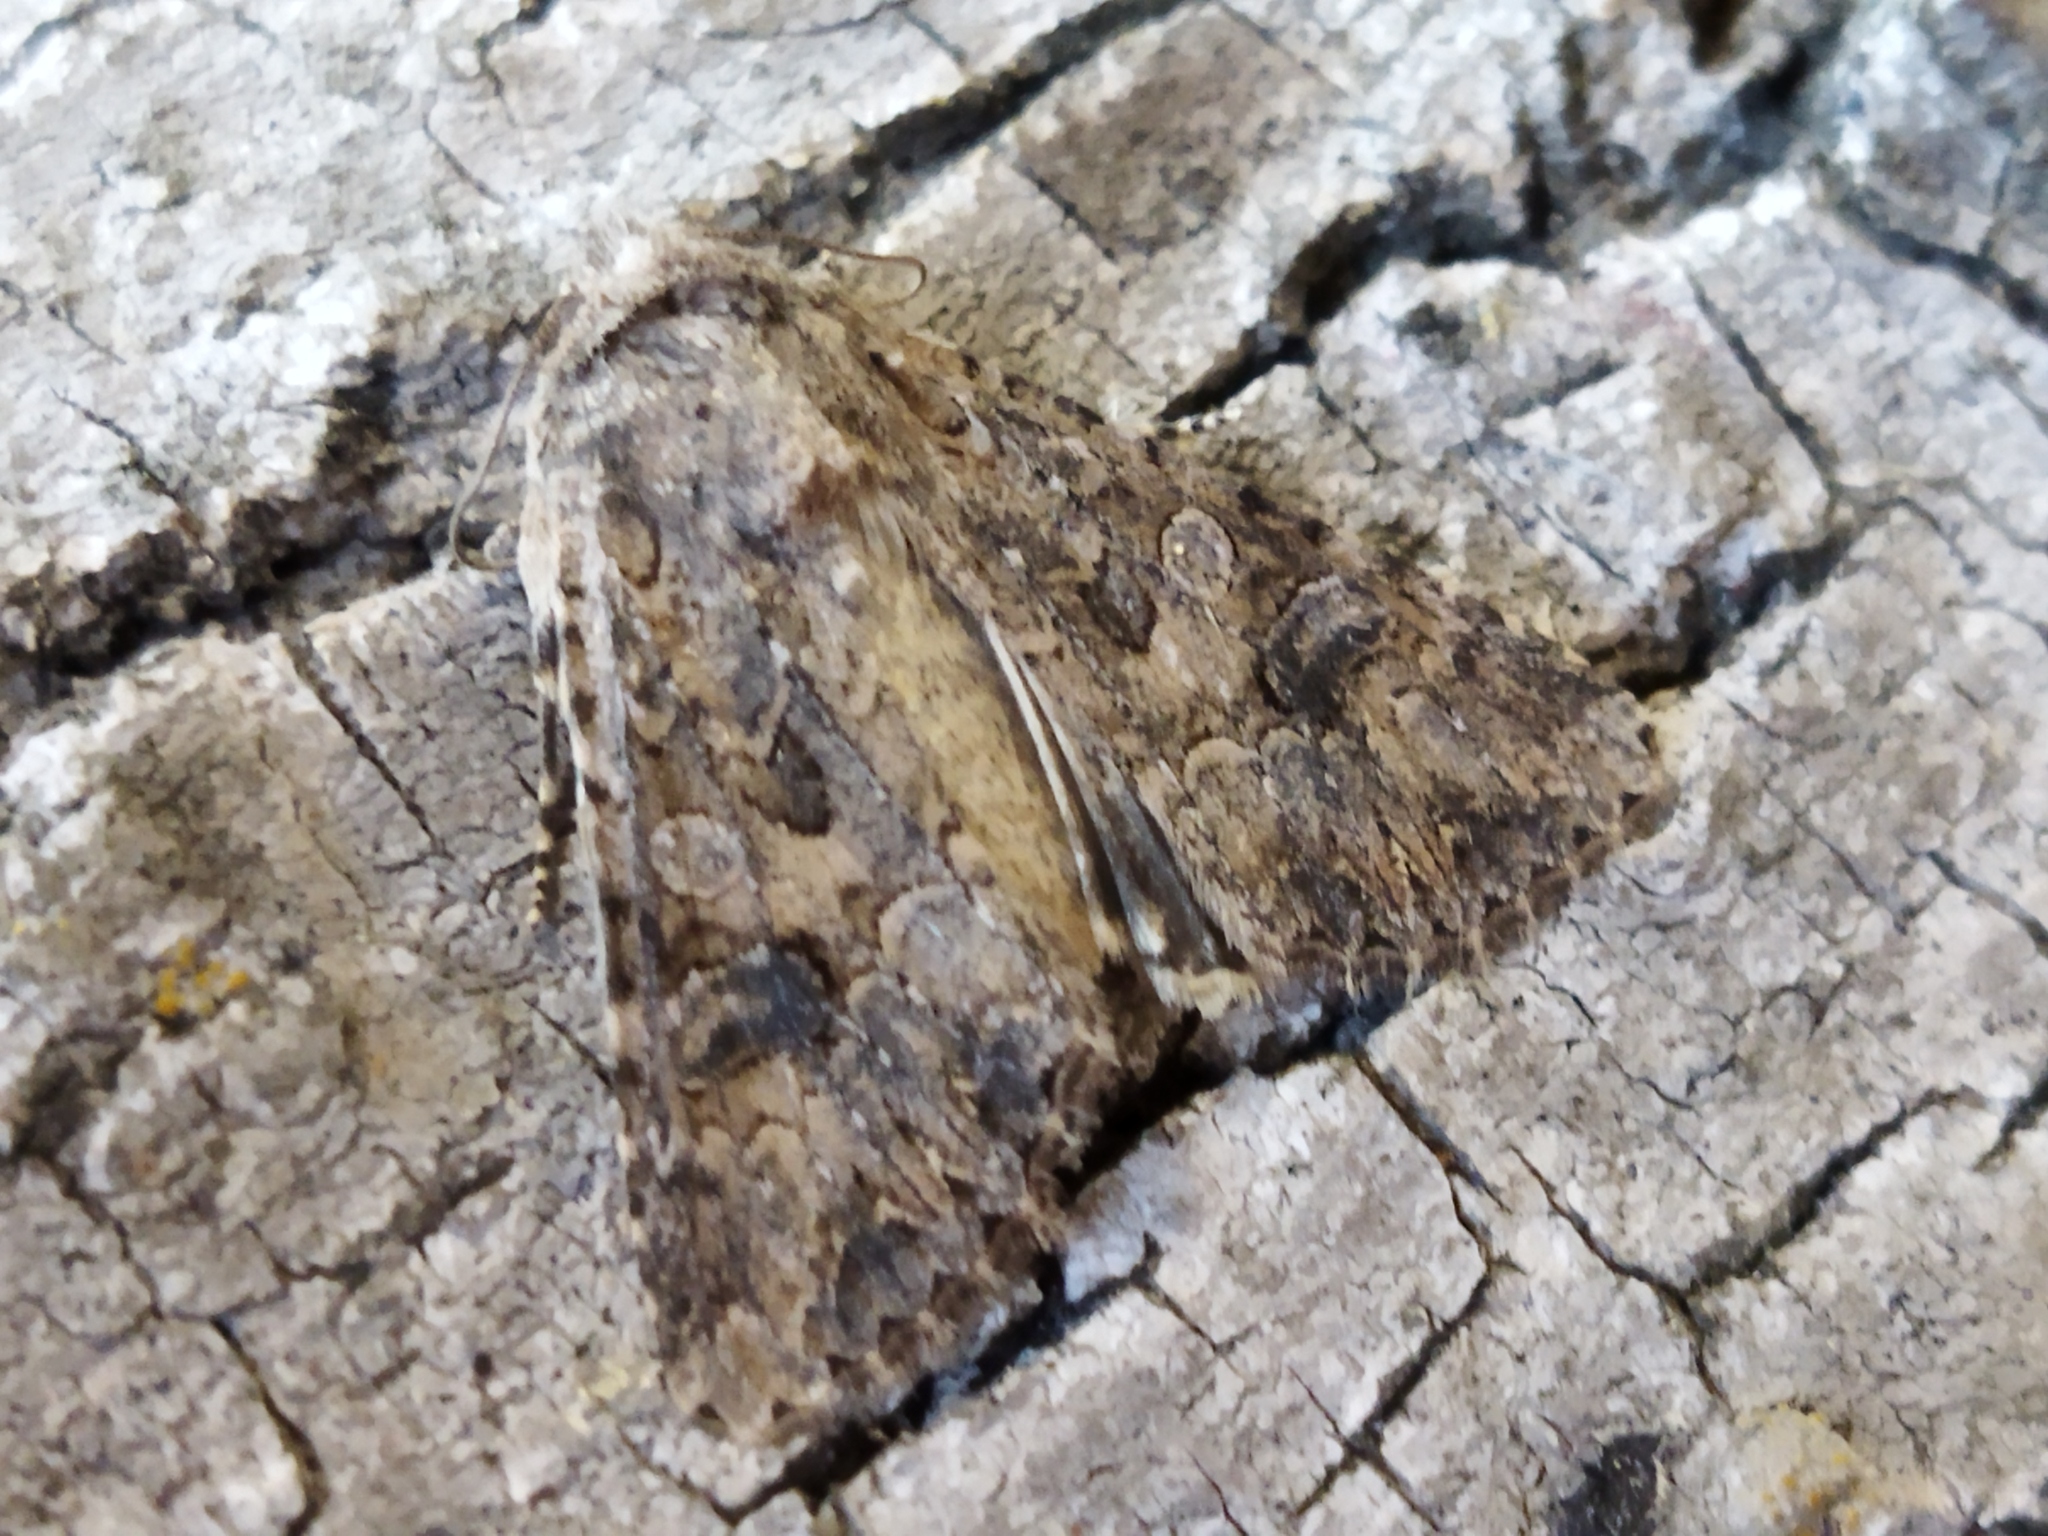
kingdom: Animalia
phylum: Arthropoda
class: Insecta
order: Lepidoptera
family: Noctuidae
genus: Anarta
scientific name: Anarta trifolii
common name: Clover cutworm moth
